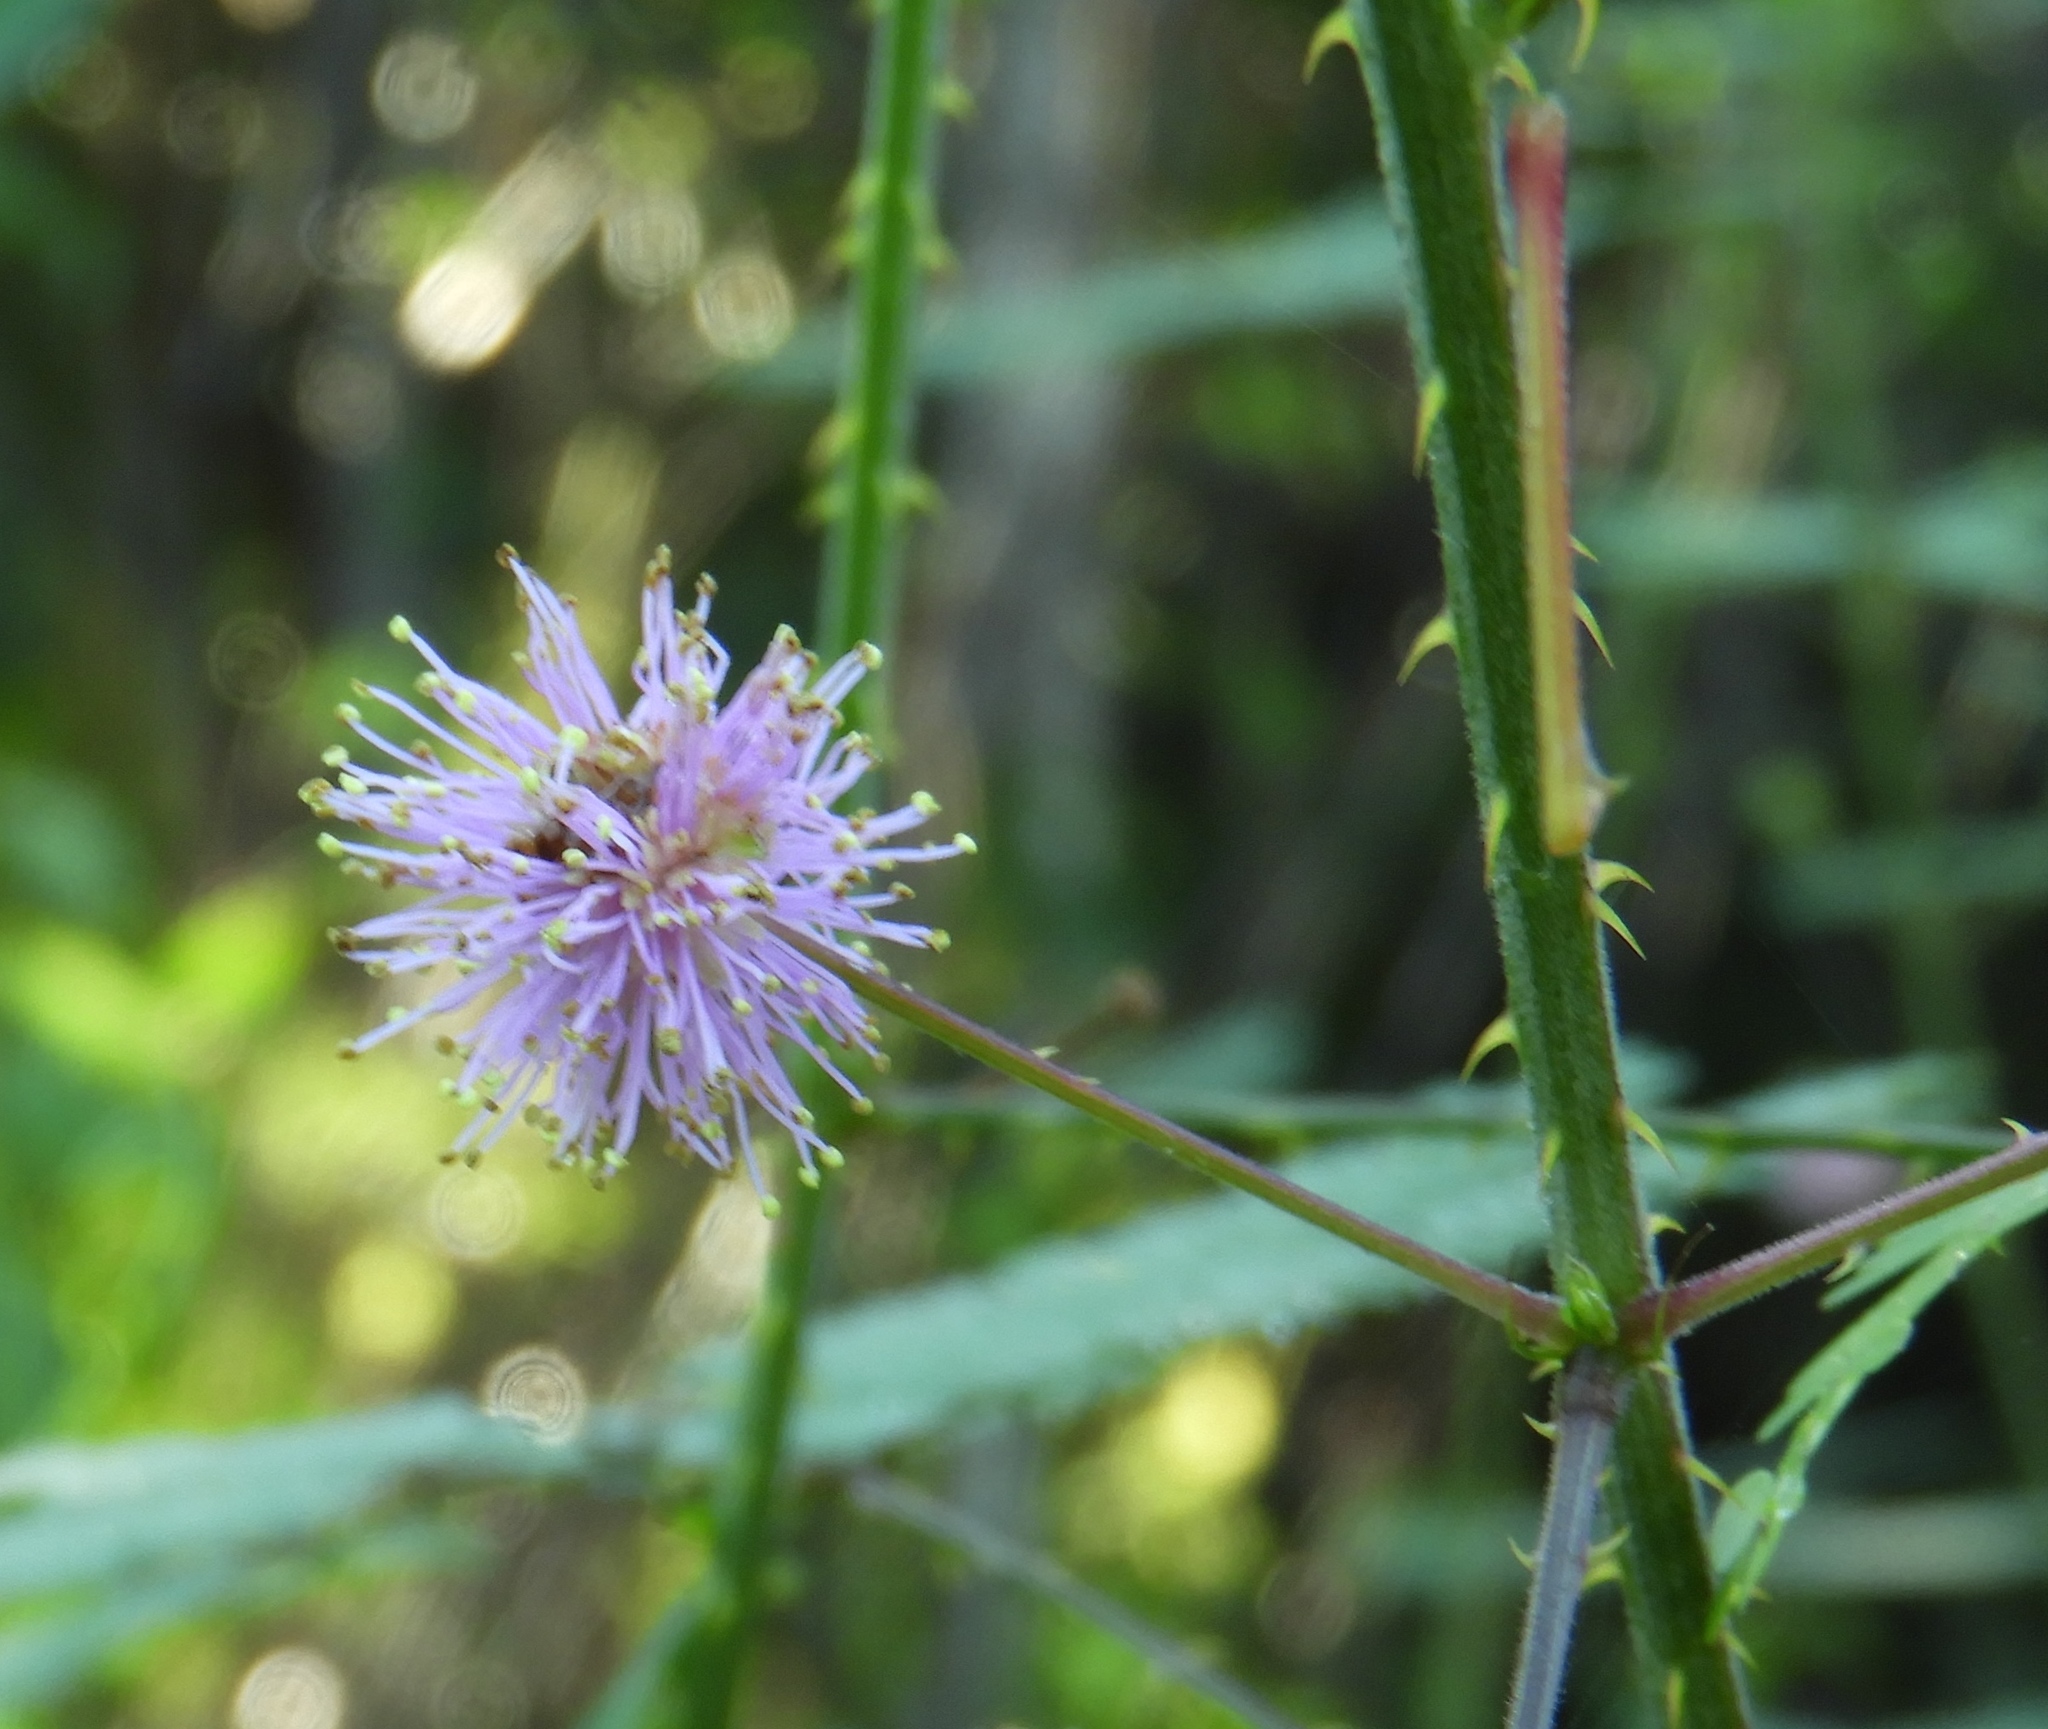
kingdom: Plantae
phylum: Tracheophyta
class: Magnoliopsida
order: Fabales
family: Fabaceae
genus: Mimosa
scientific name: Mimosa quadrivalvis
